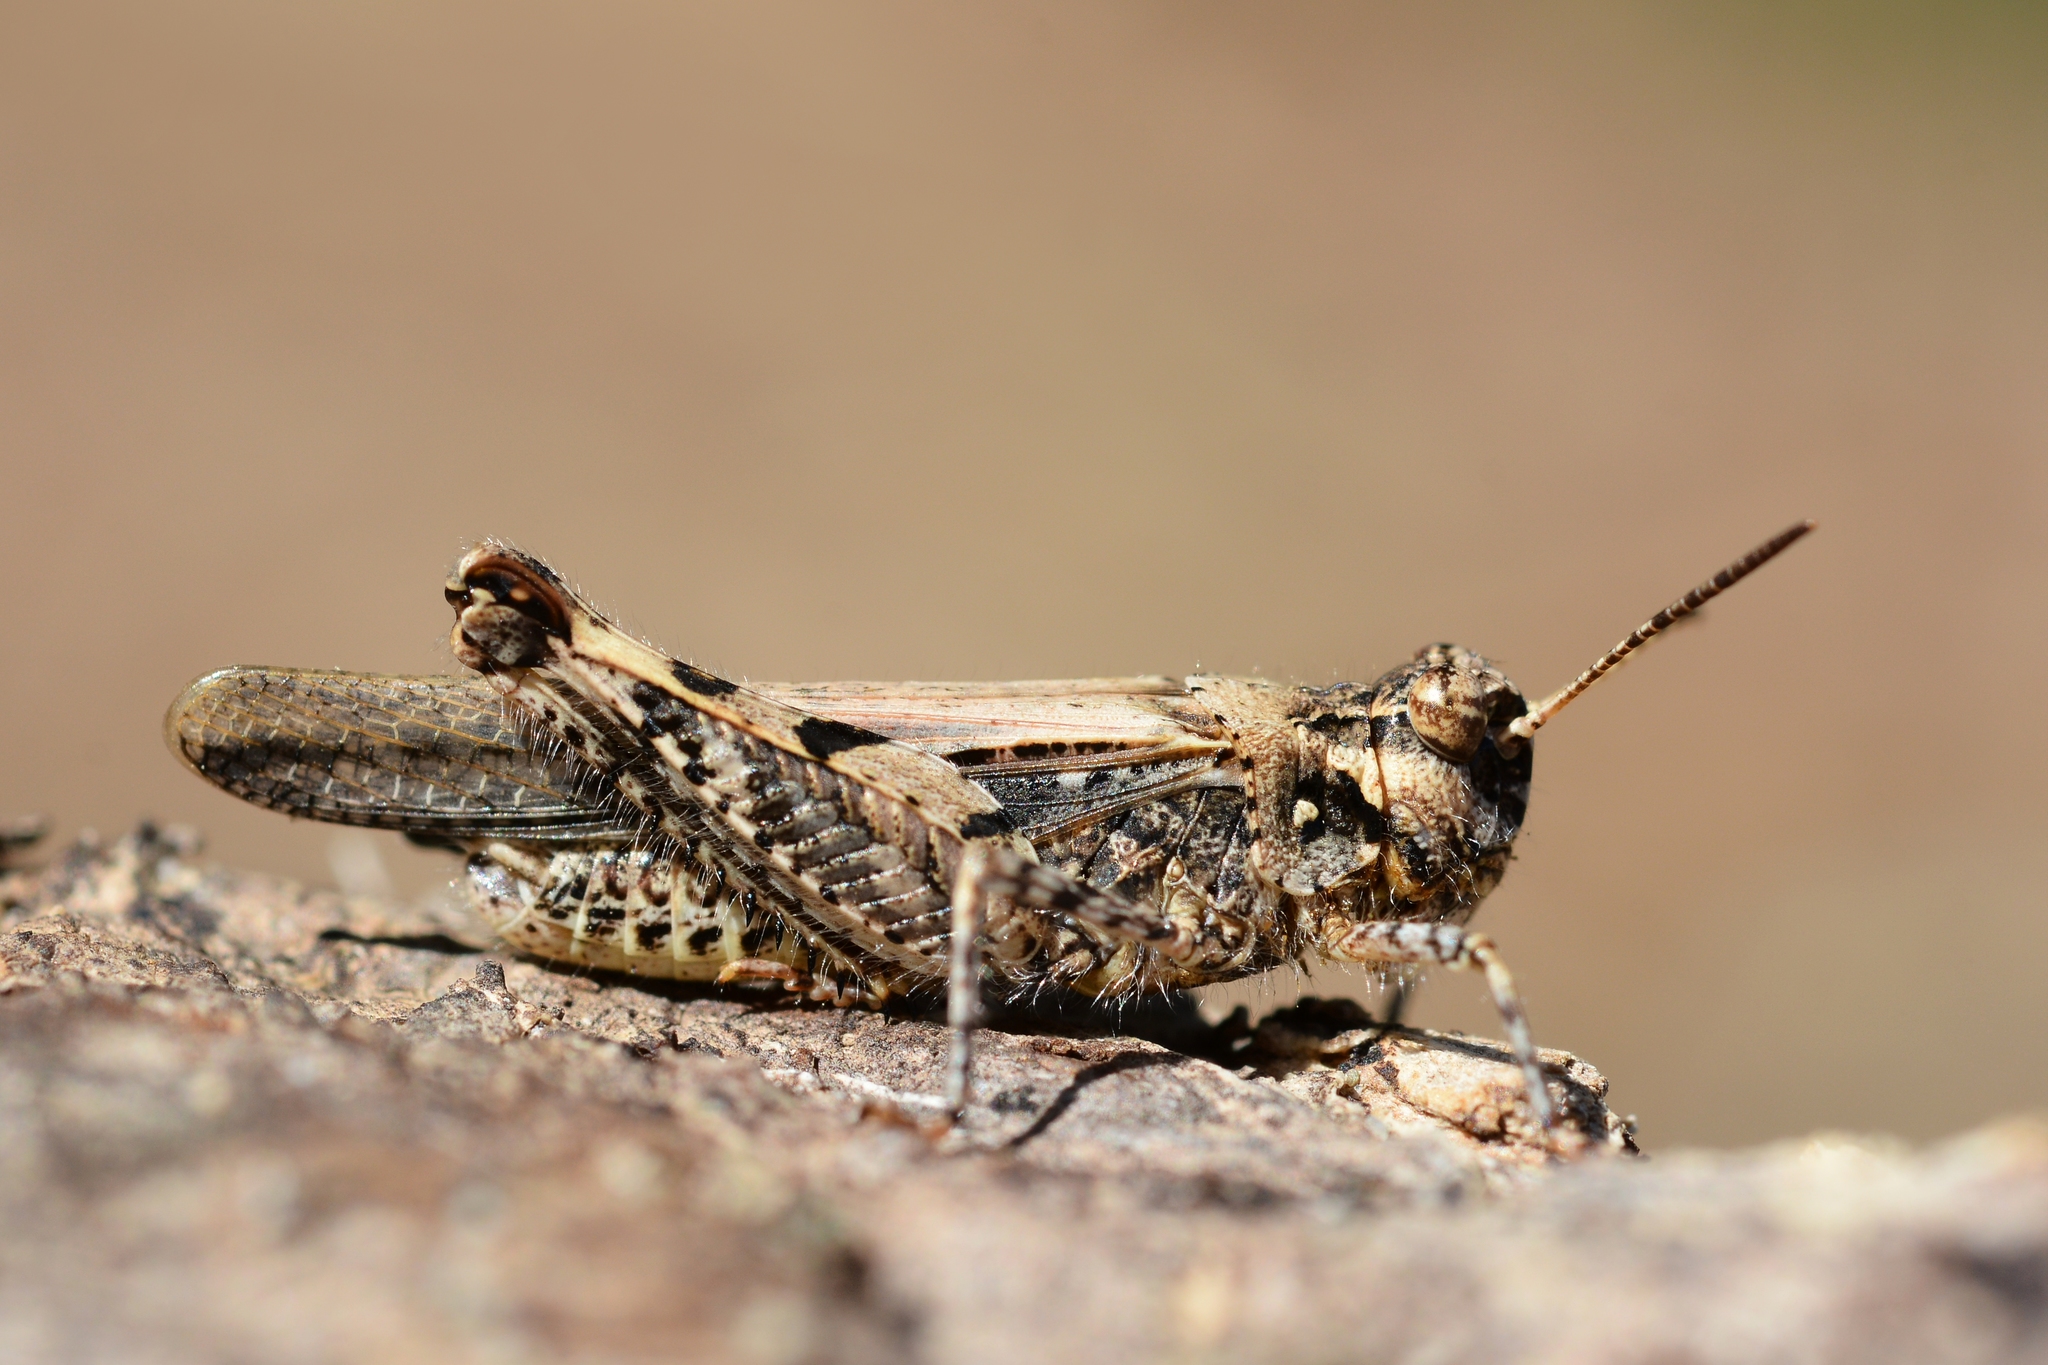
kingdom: Animalia
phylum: Arthropoda
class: Insecta
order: Orthoptera
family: Acrididae
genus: Acrotylus
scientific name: Acrotylus insubricus
